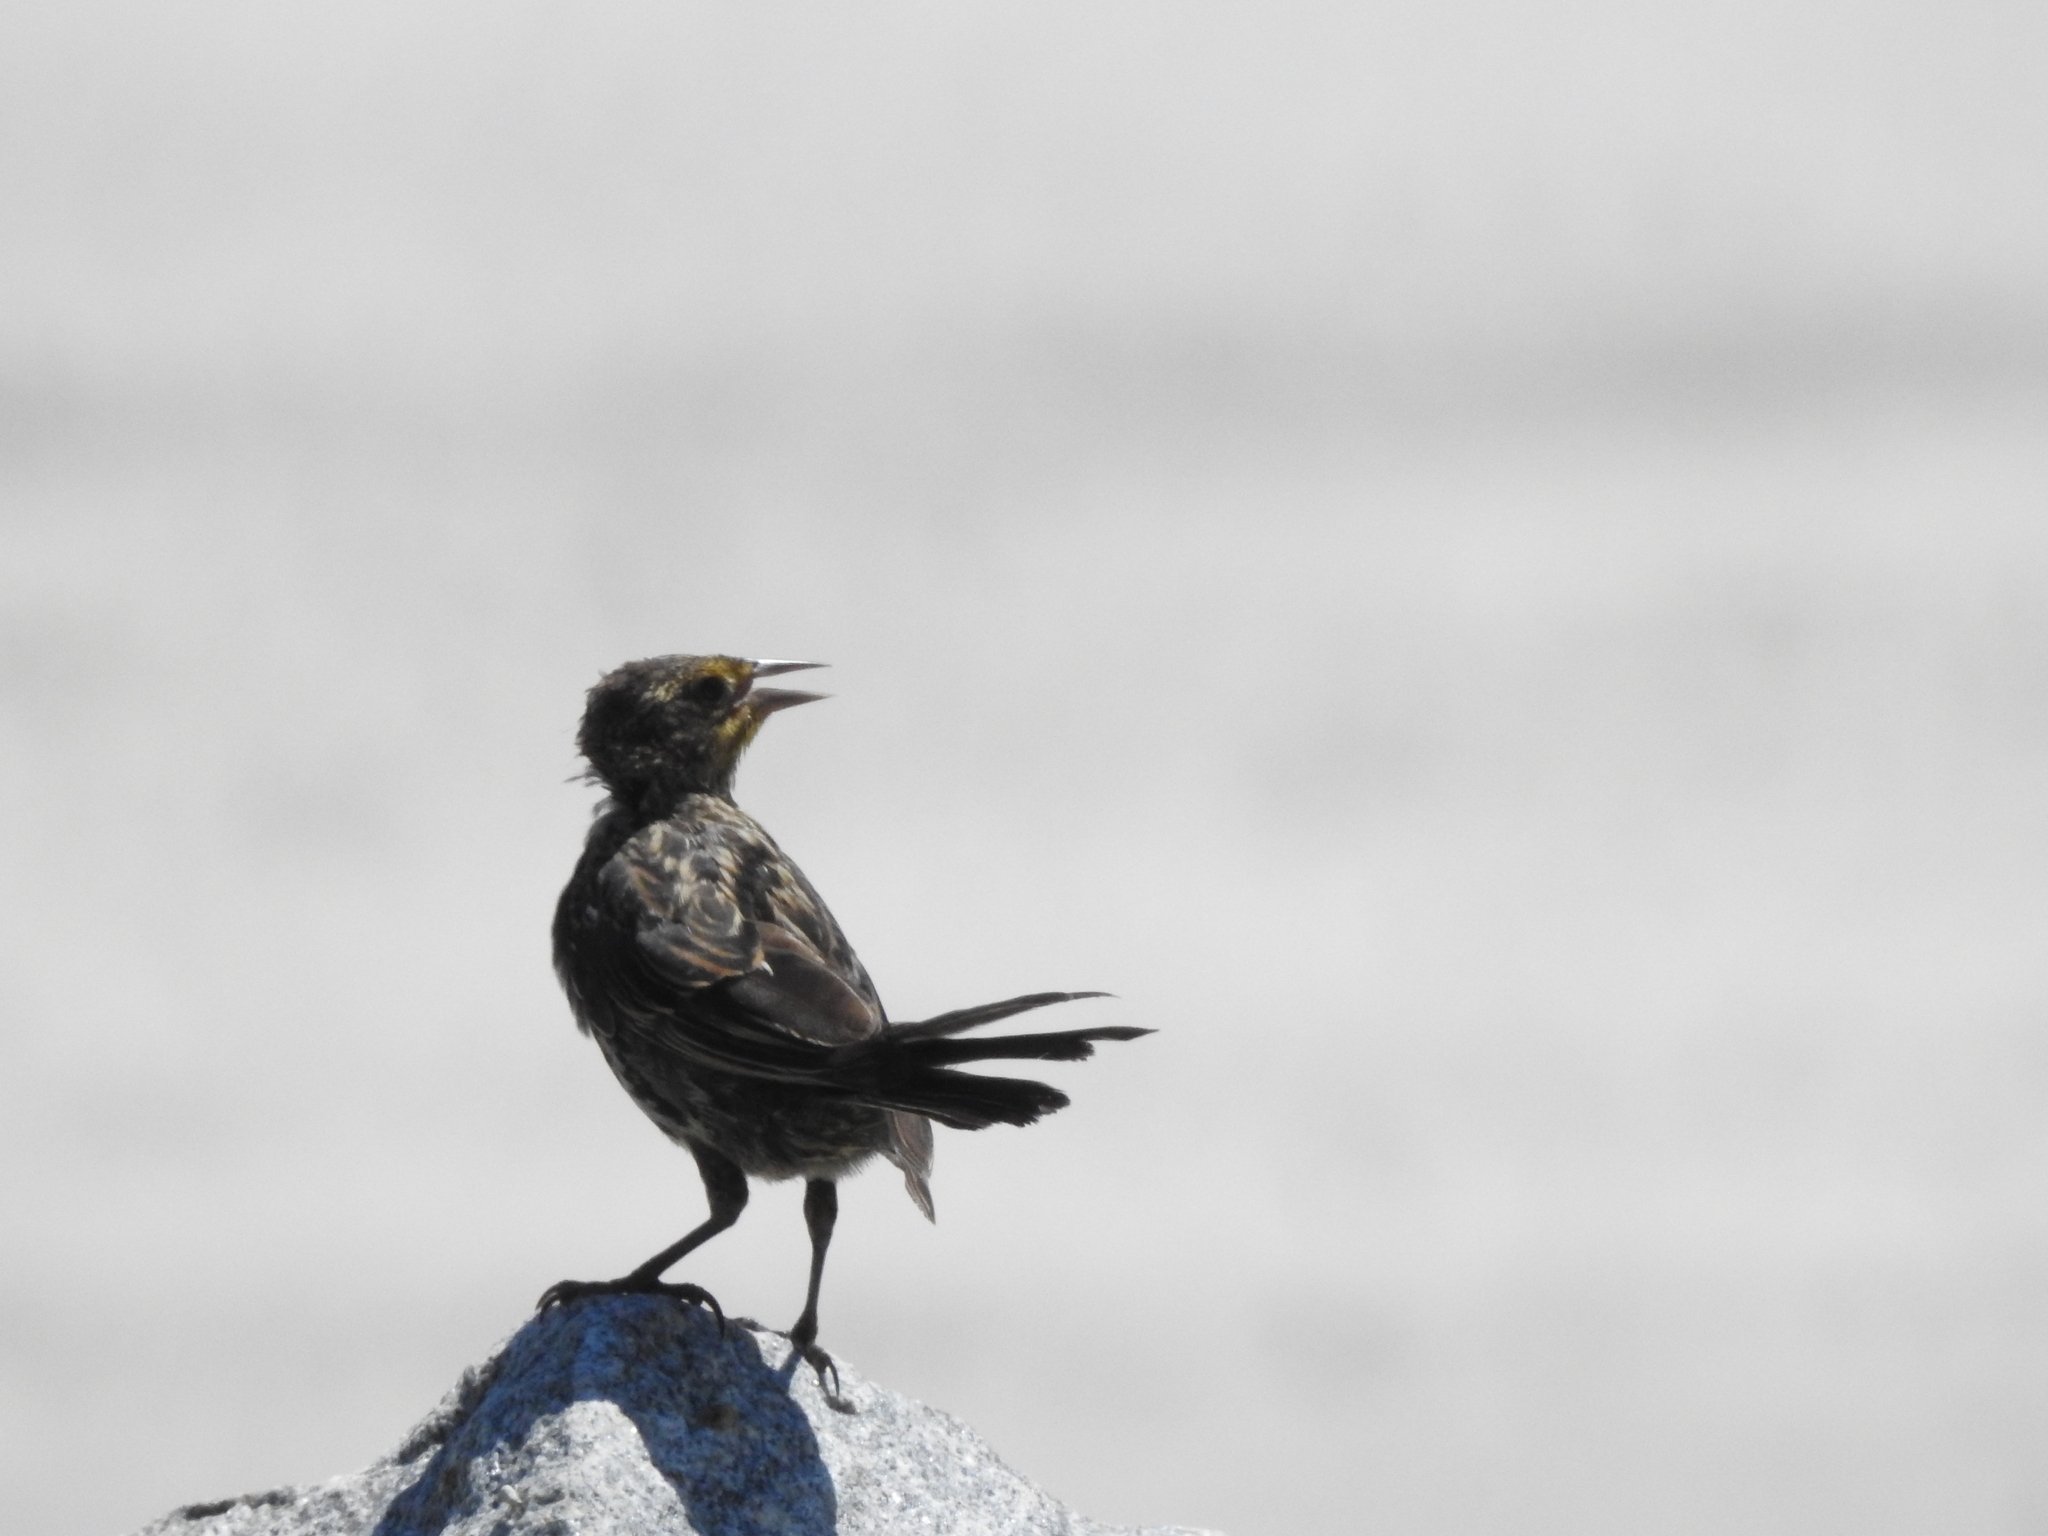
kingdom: Animalia
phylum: Chordata
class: Aves
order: Passeriformes
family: Icteridae
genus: Agelaius
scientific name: Agelaius phoeniceus
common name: Red-winged blackbird
